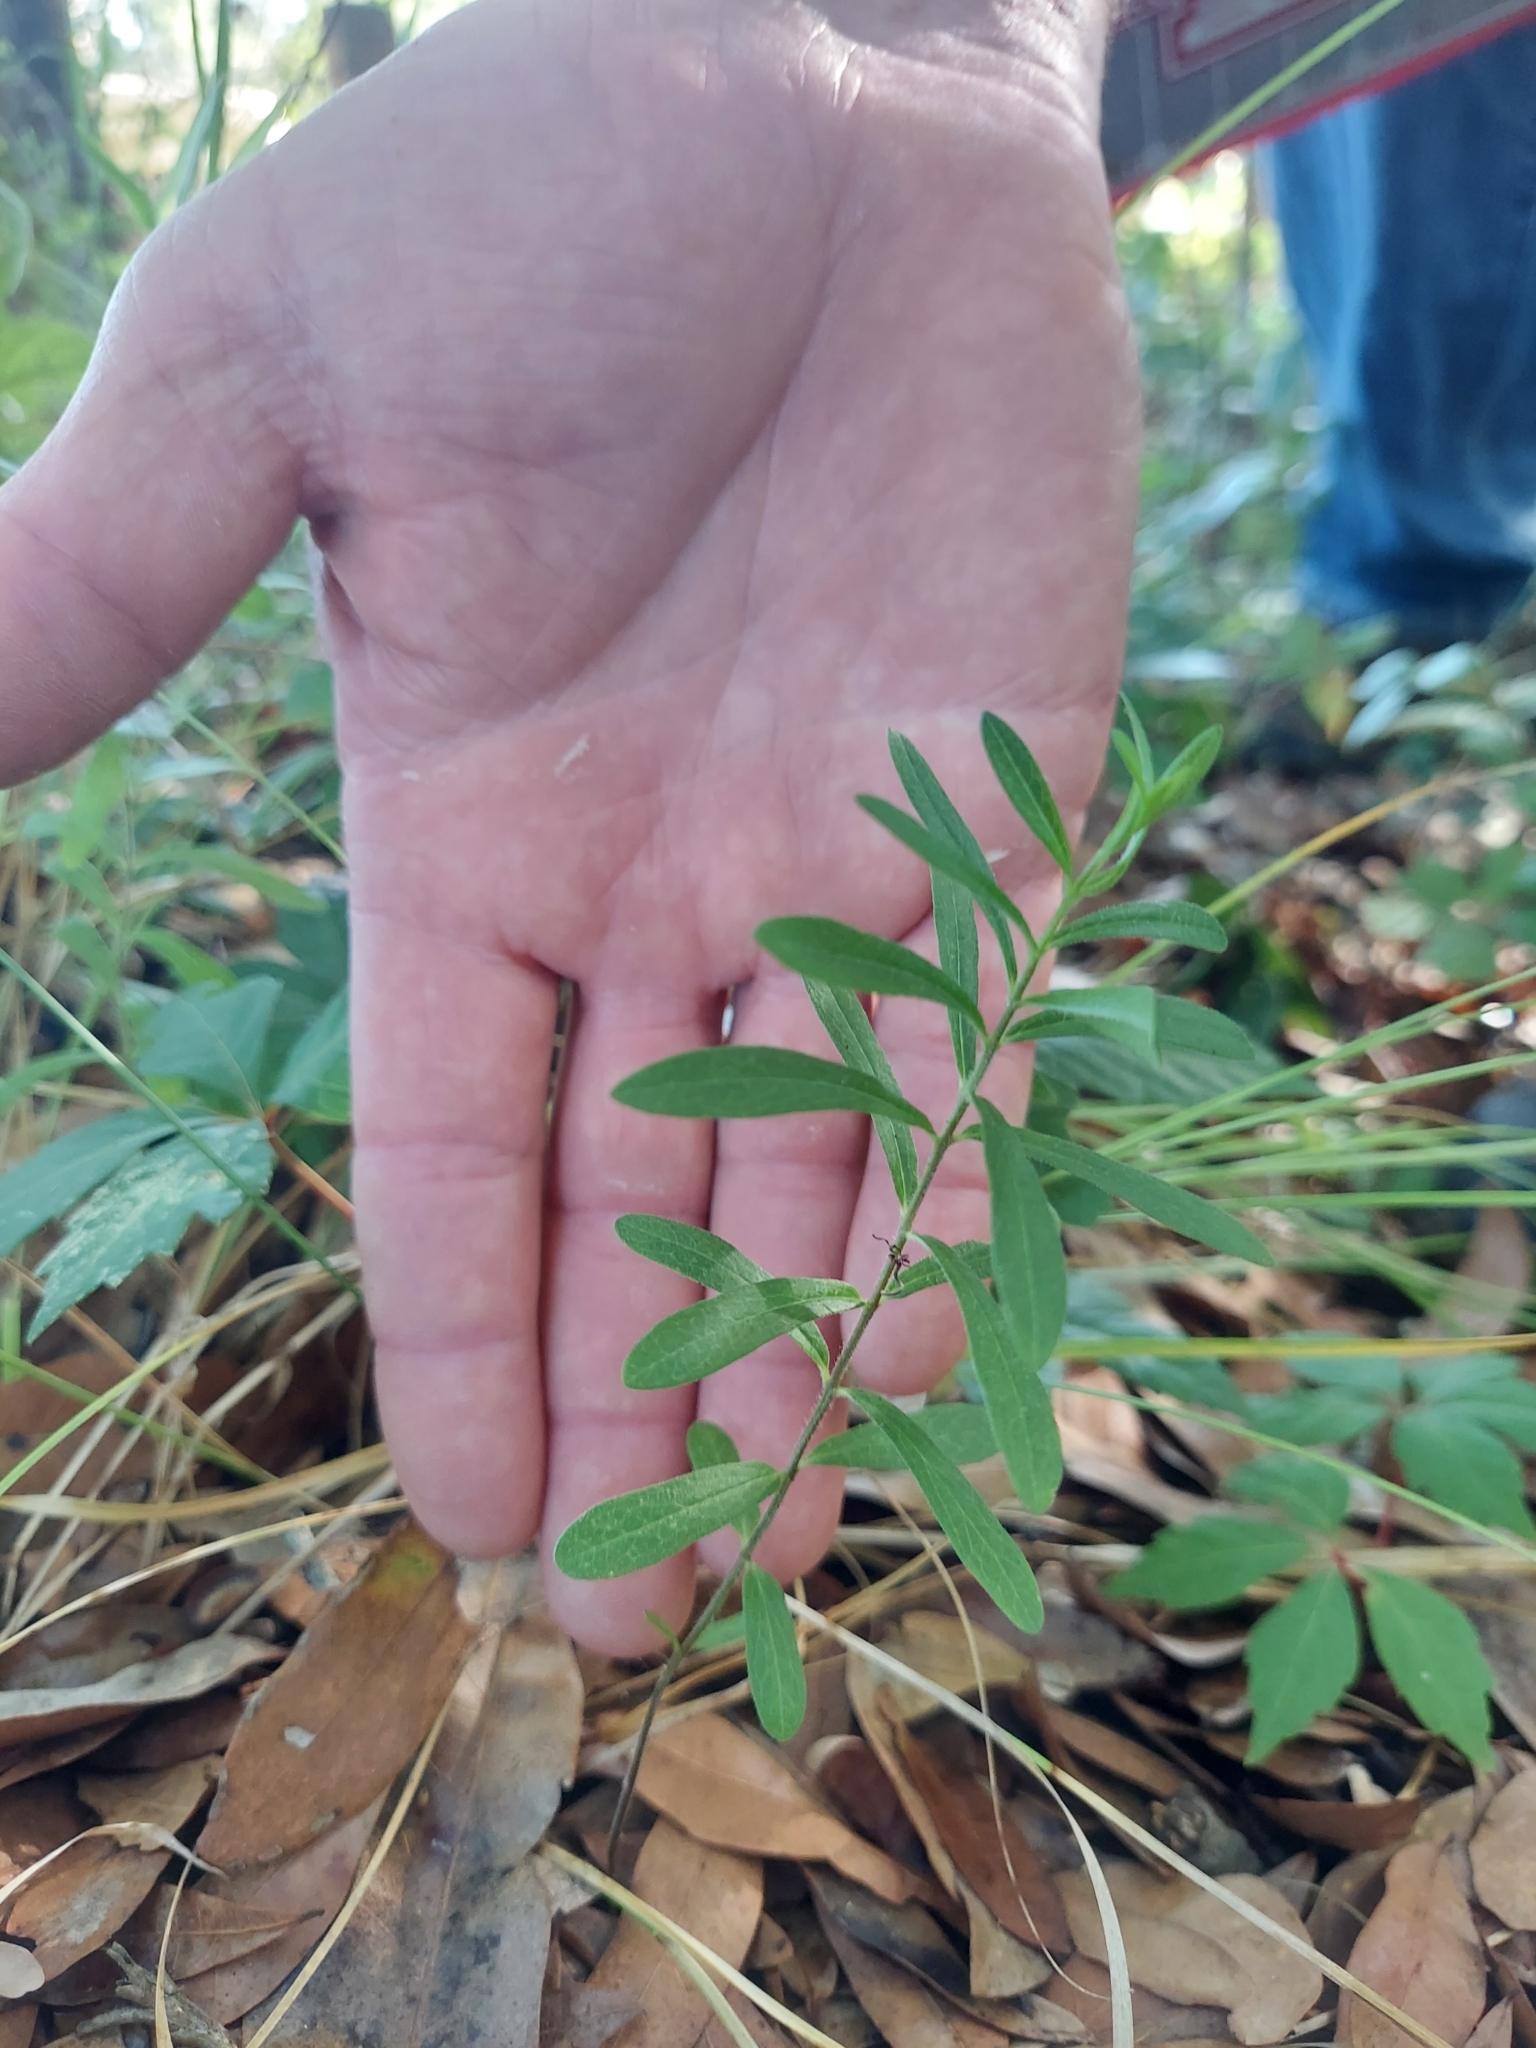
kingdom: Plantae
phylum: Tracheophyta
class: Magnoliopsida
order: Gentianales
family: Apocynaceae
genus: Asclepias
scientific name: Asclepias tuberosa
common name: Butterfly milkweed
